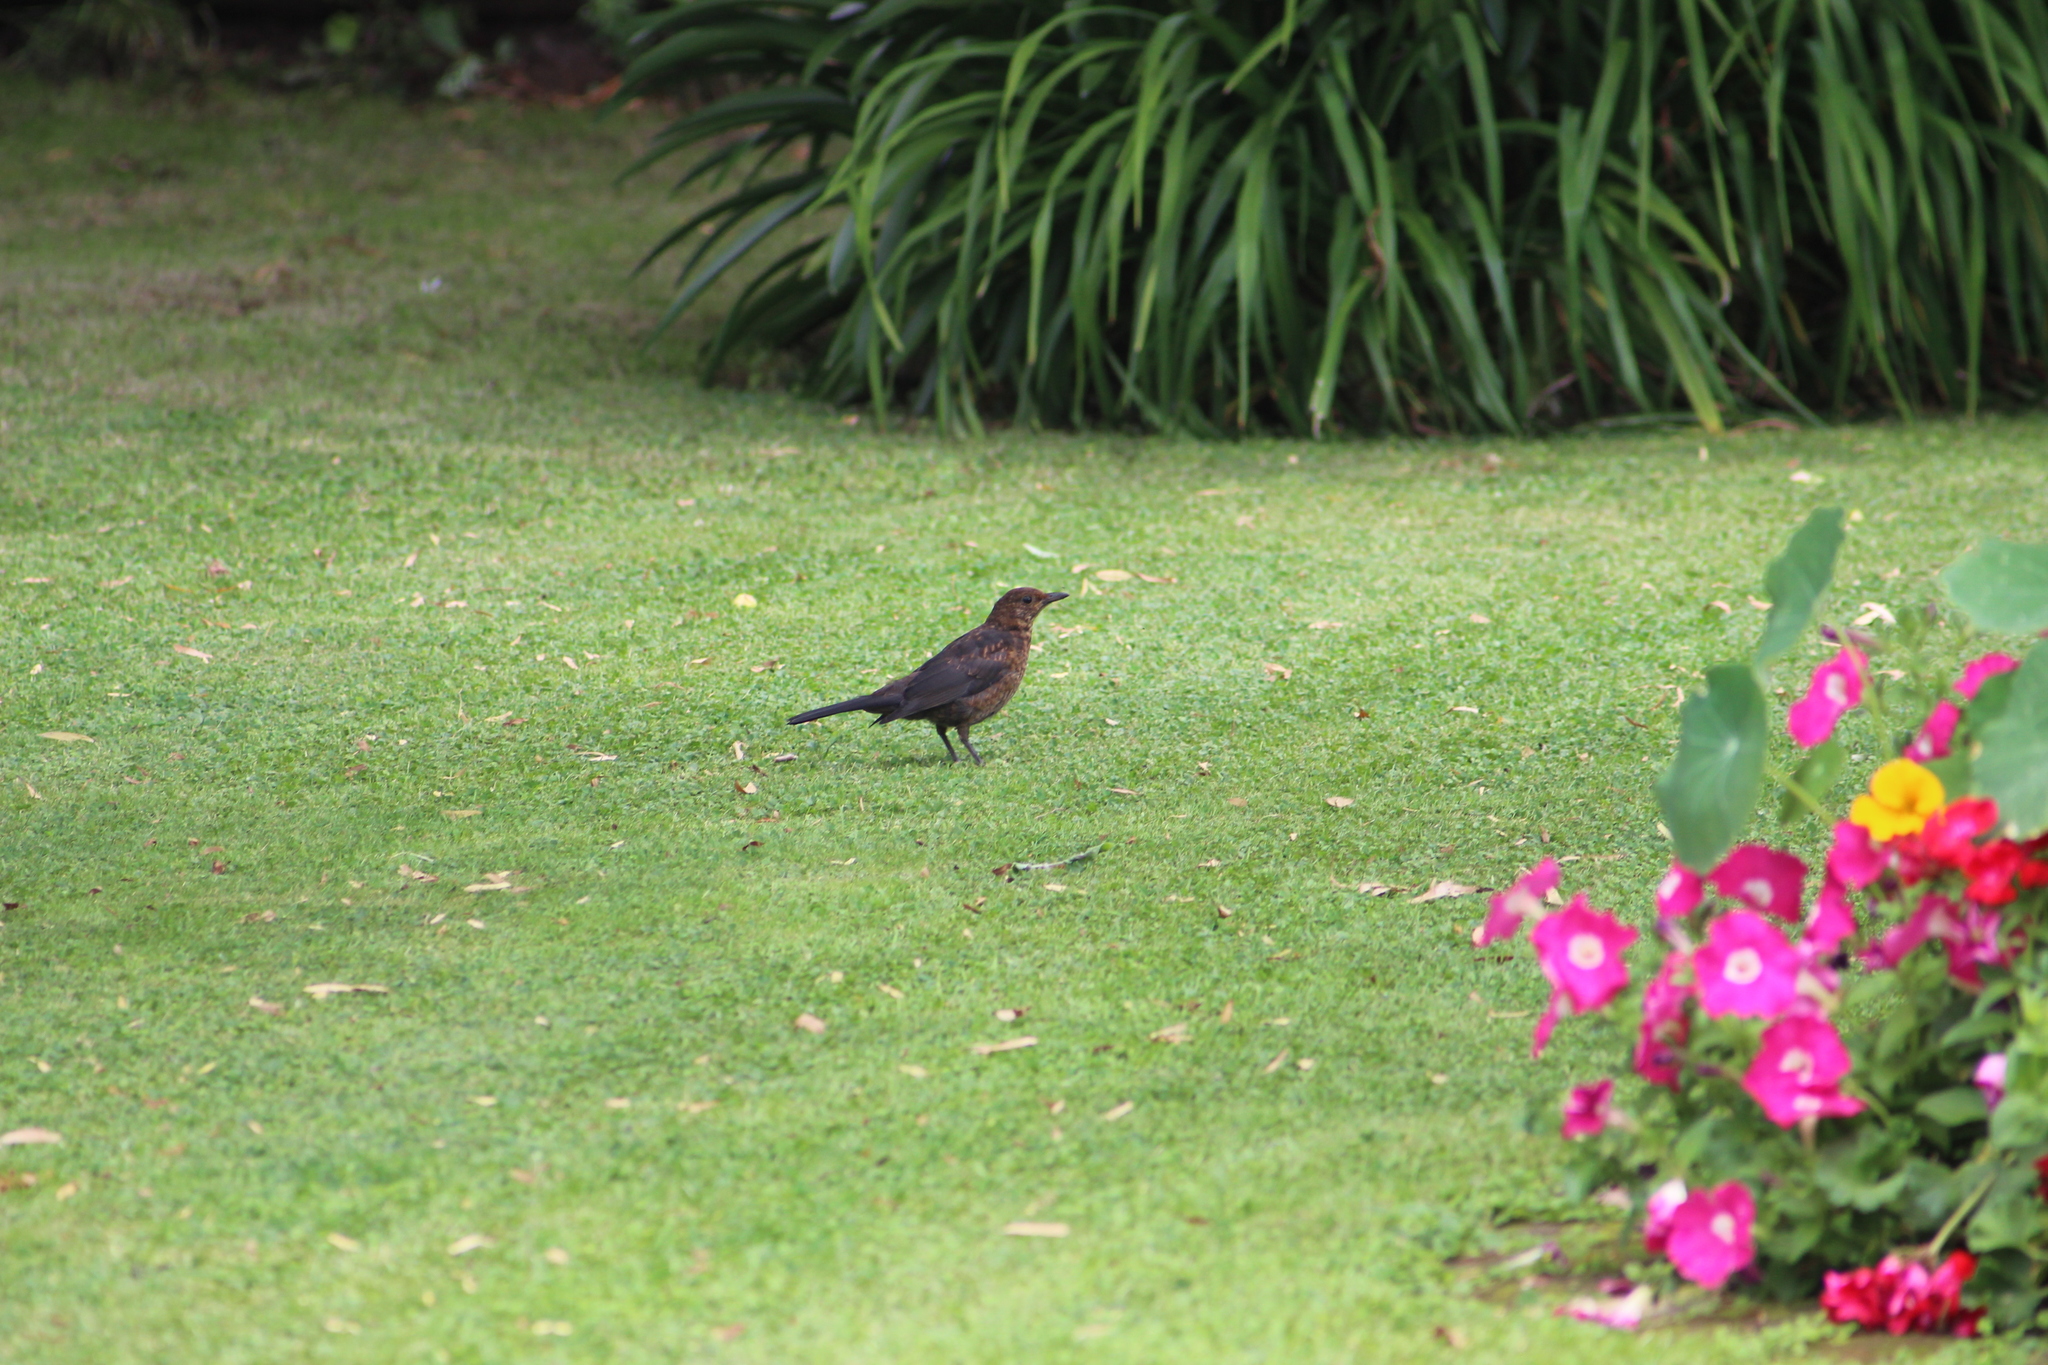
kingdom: Animalia
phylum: Chordata
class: Aves
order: Passeriformes
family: Turdidae
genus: Turdus
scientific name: Turdus merula
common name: Common blackbird
